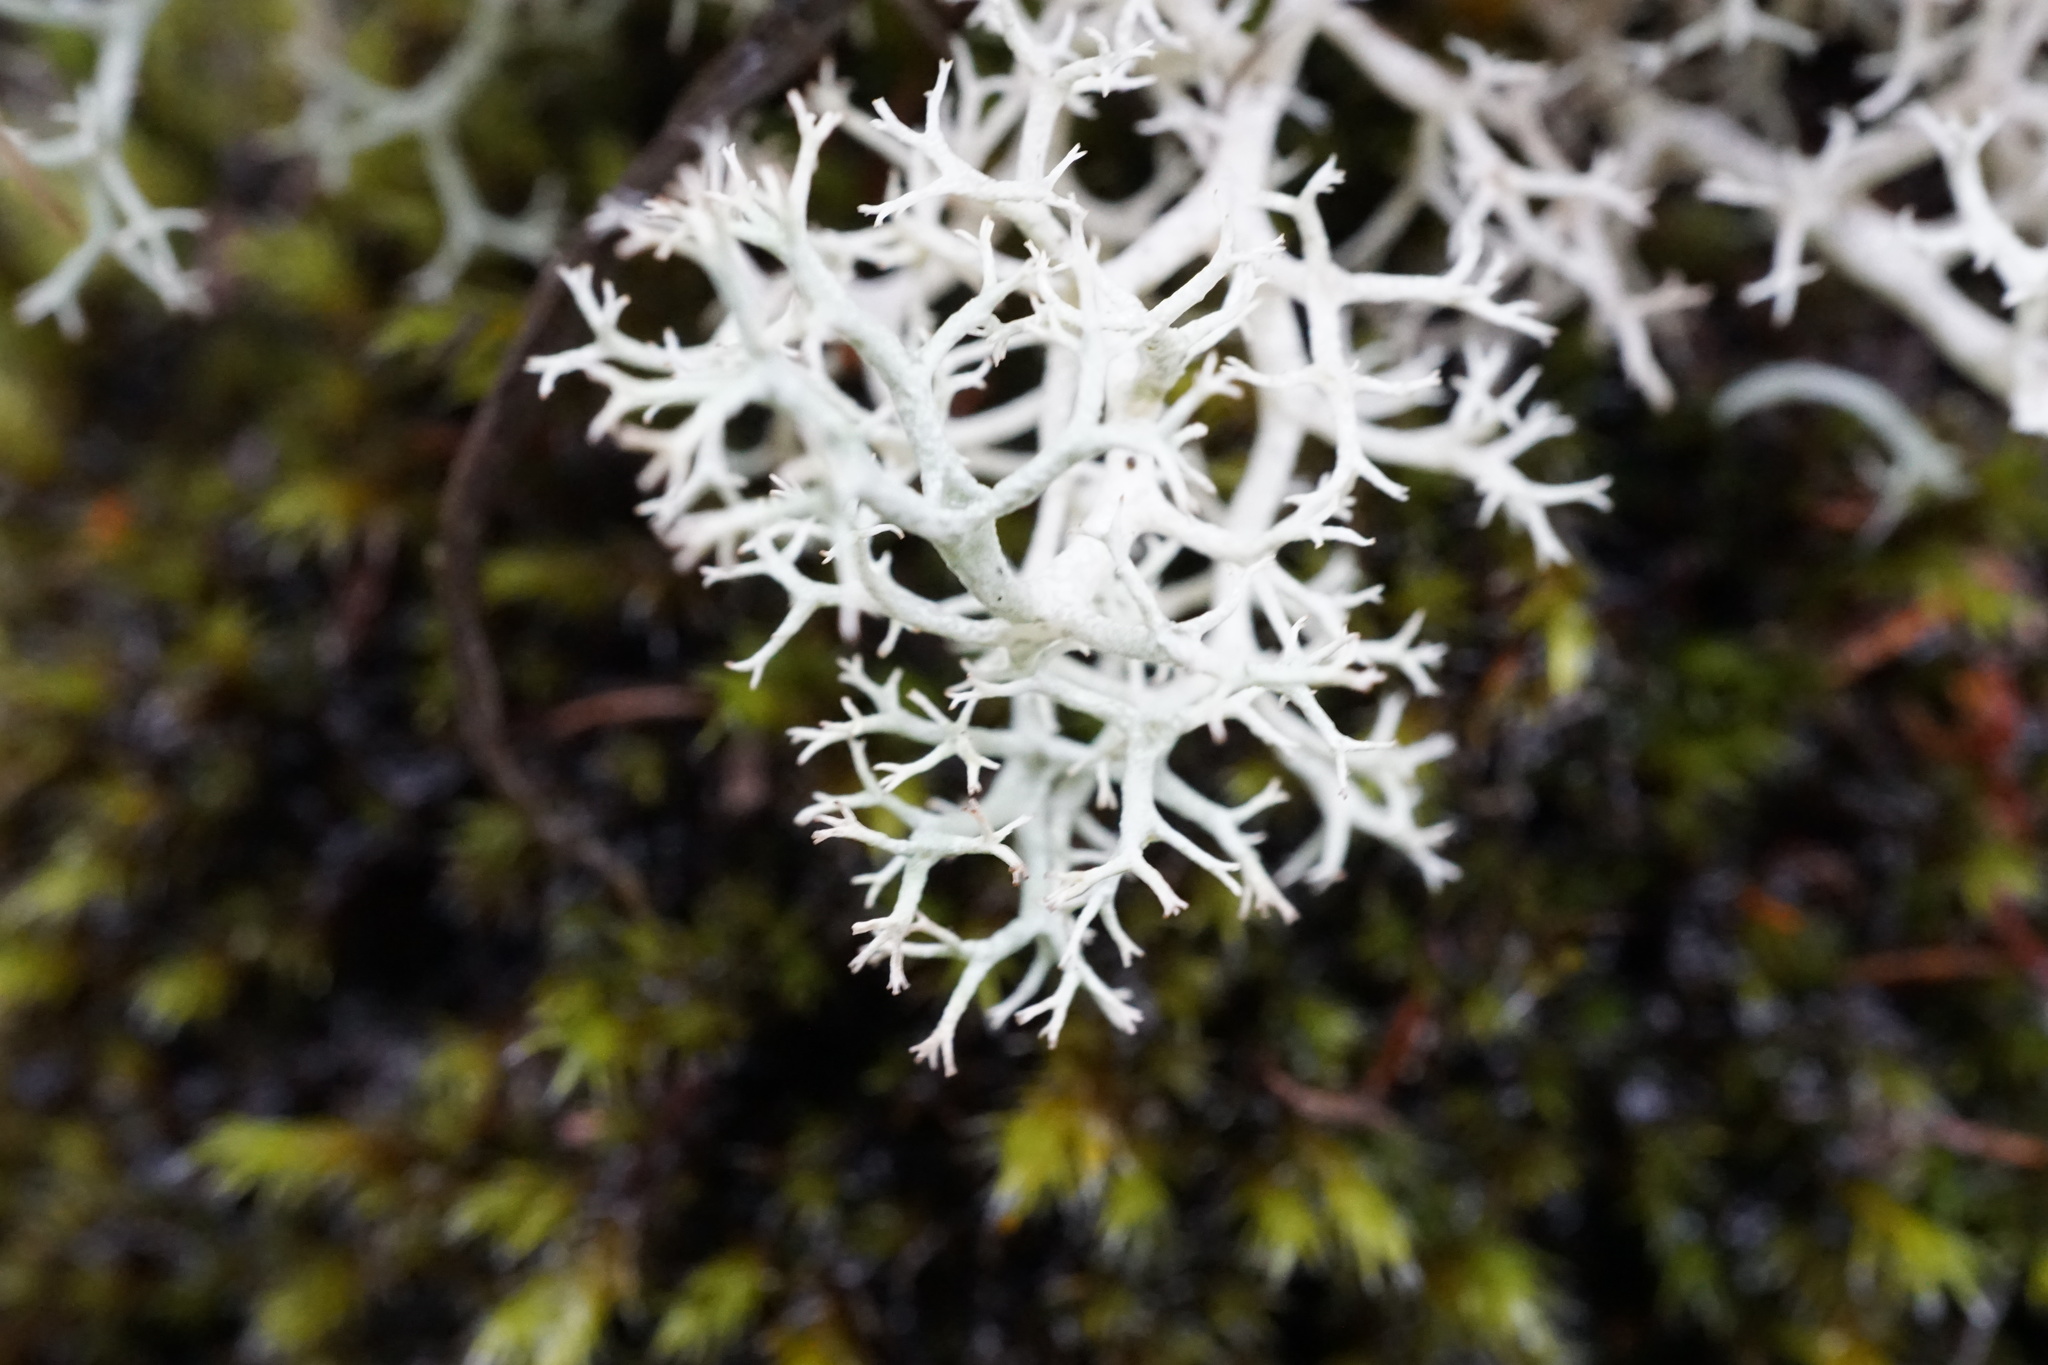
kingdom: Fungi
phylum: Ascomycota
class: Lecanoromycetes
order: Lecanorales
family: Cladoniaceae
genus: Cladonia
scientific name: Cladonia portentosa
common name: Reindeer lichen
